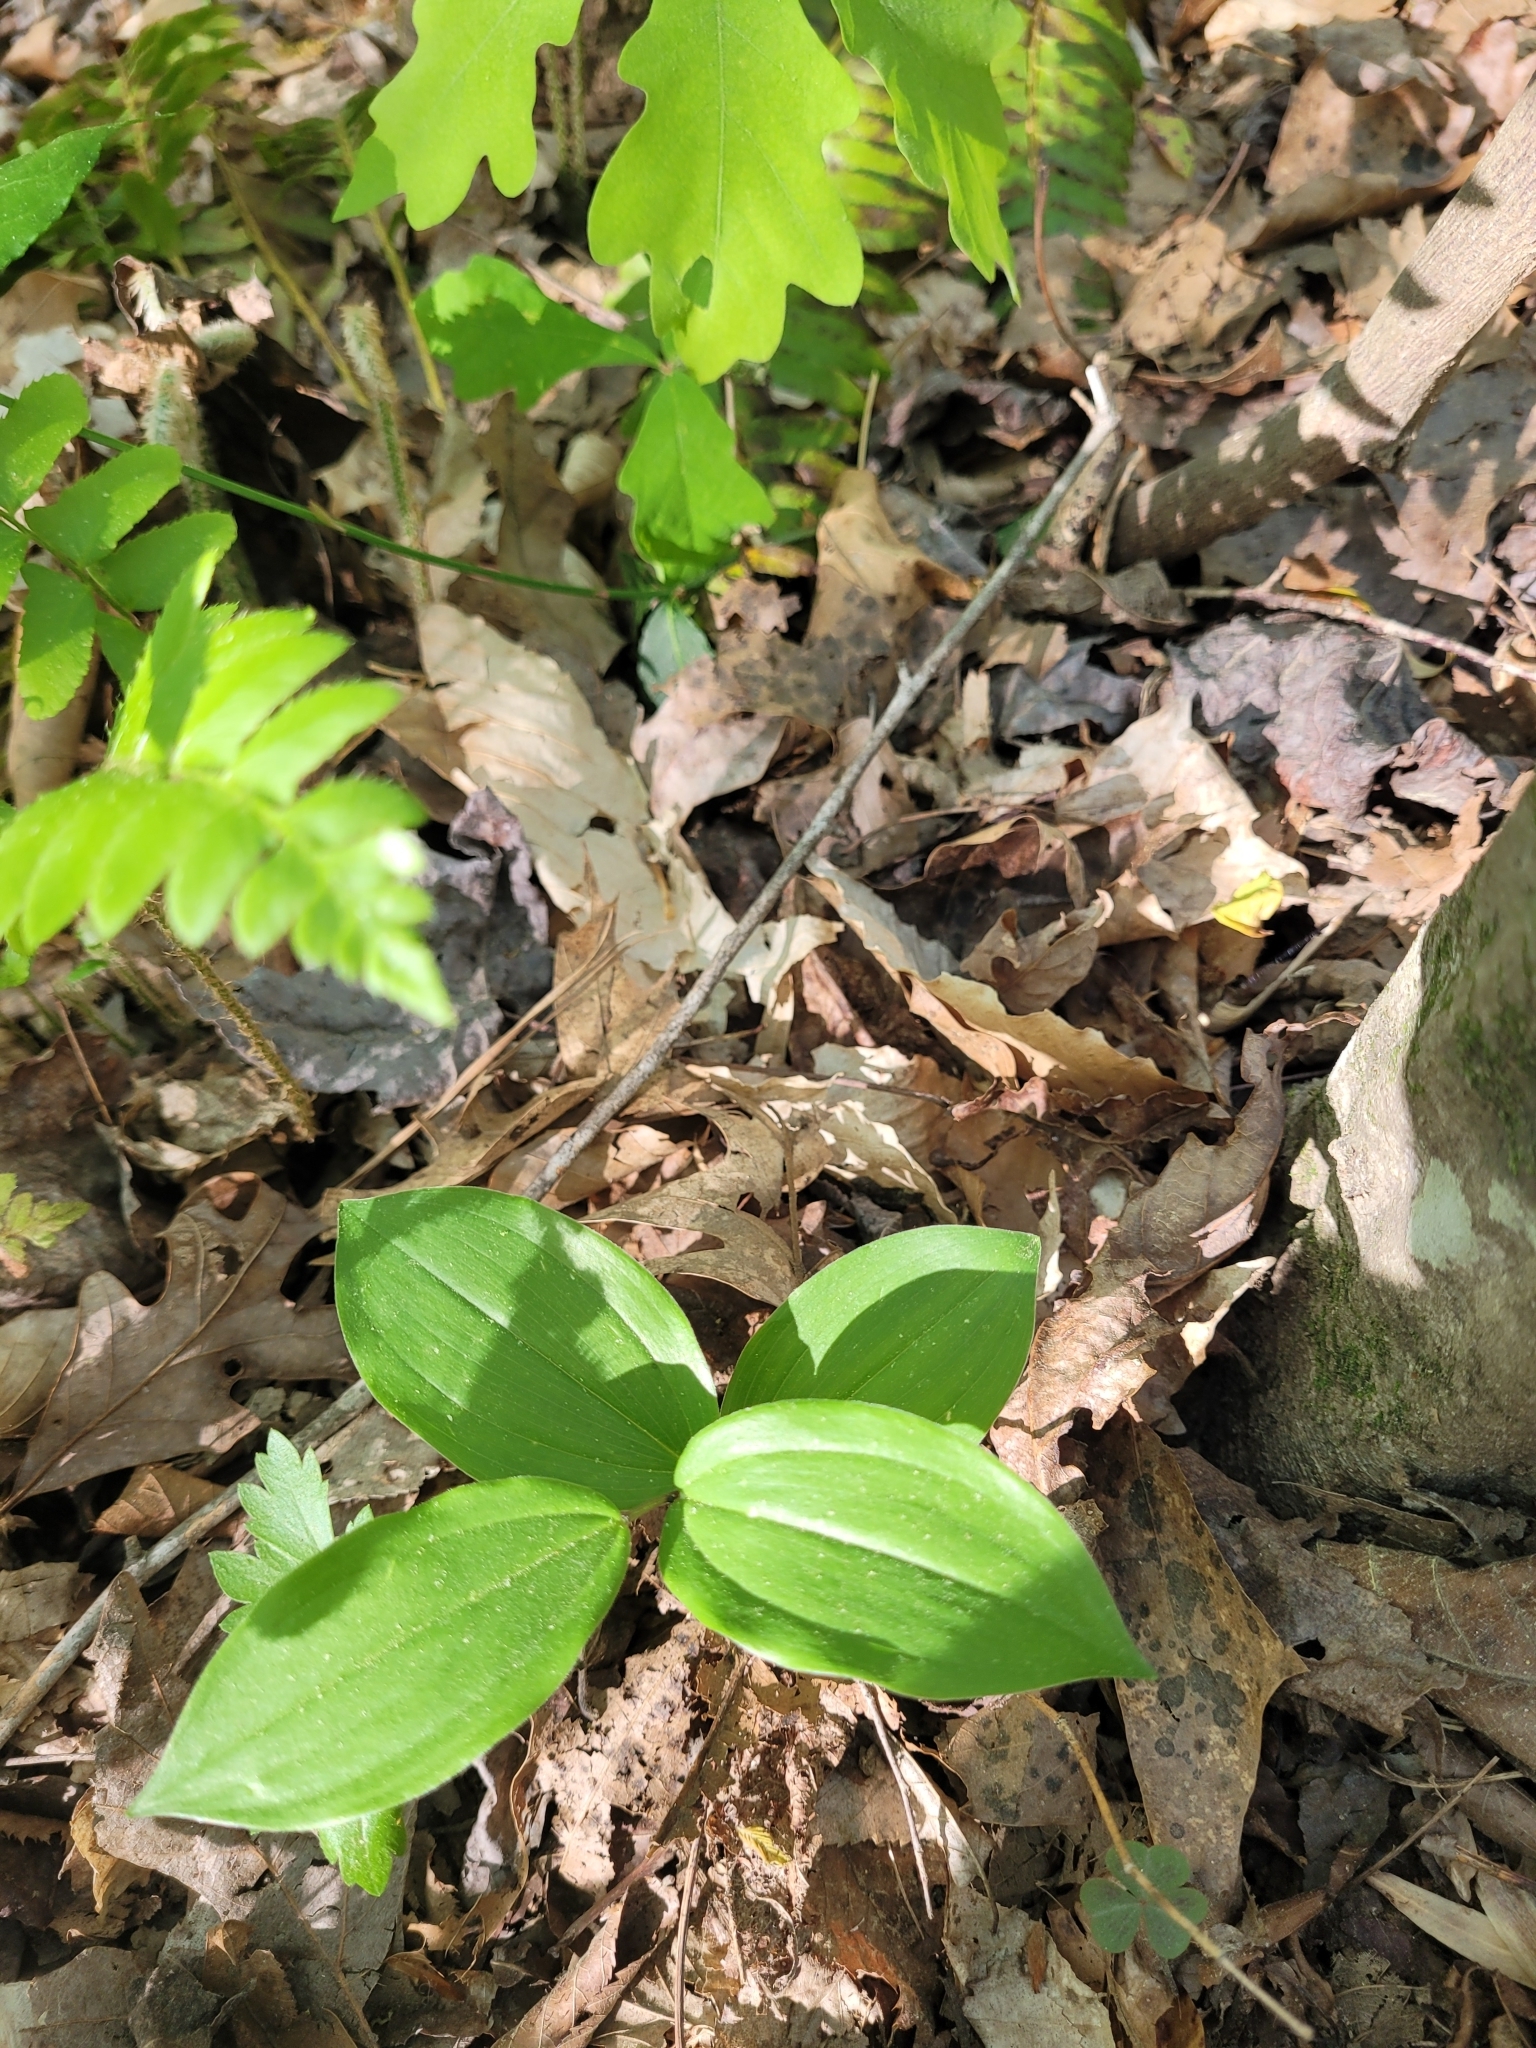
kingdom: Plantae
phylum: Tracheophyta
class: Liliopsida
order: Asparagales
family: Asparagaceae
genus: Maianthemum
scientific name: Maianthemum racemosum
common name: False spikenard
